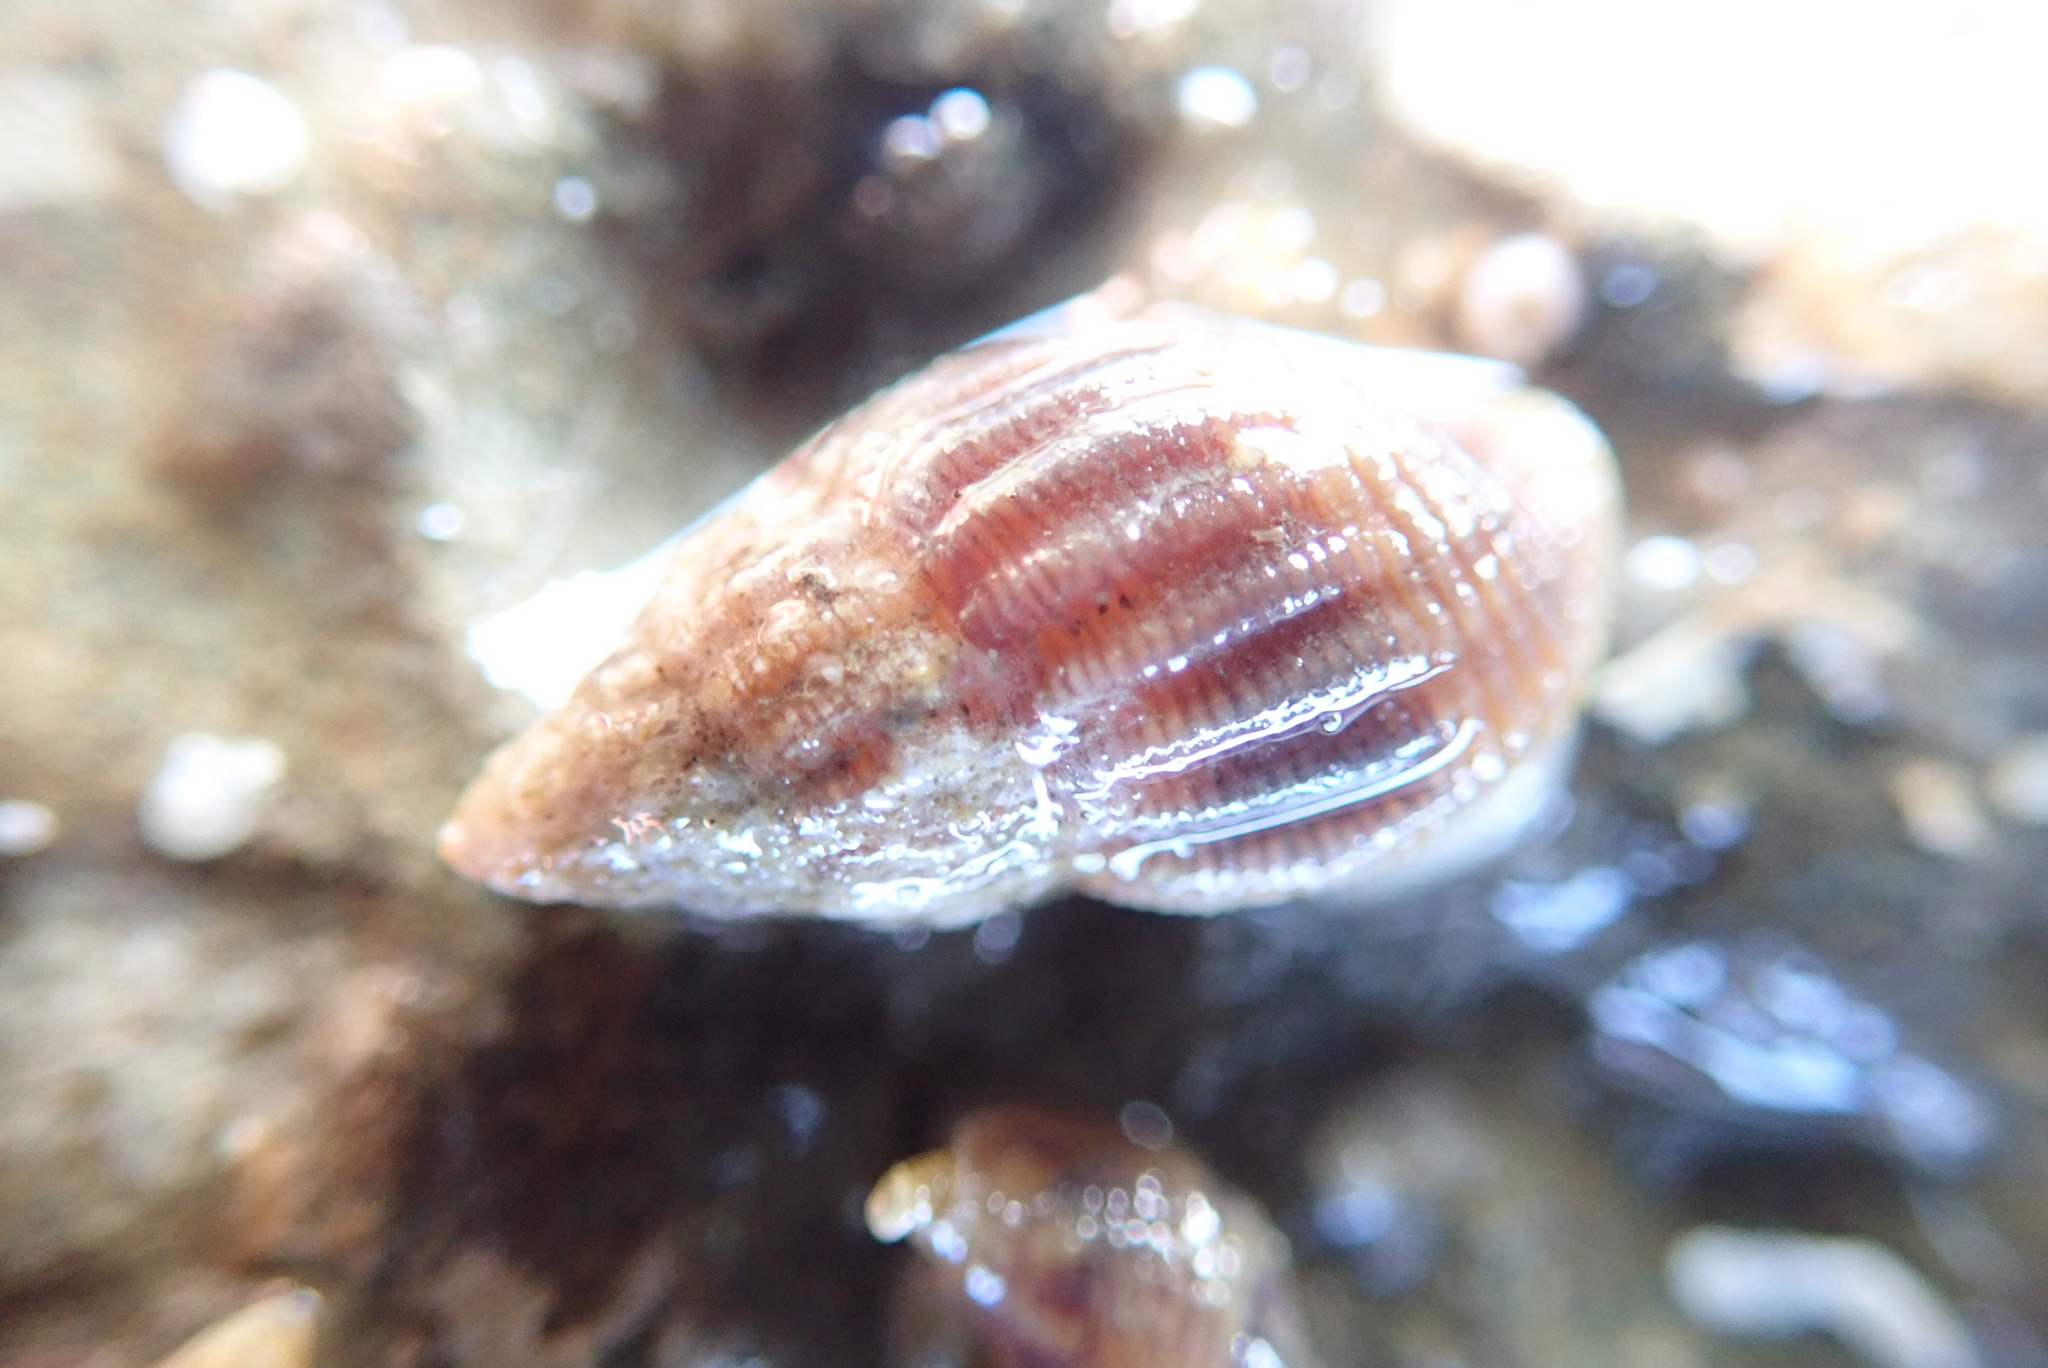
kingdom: Animalia
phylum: Mollusca
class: Gastropoda
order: Neogastropoda
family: Columbellidae
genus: Amphissa
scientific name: Amphissa columbiana
